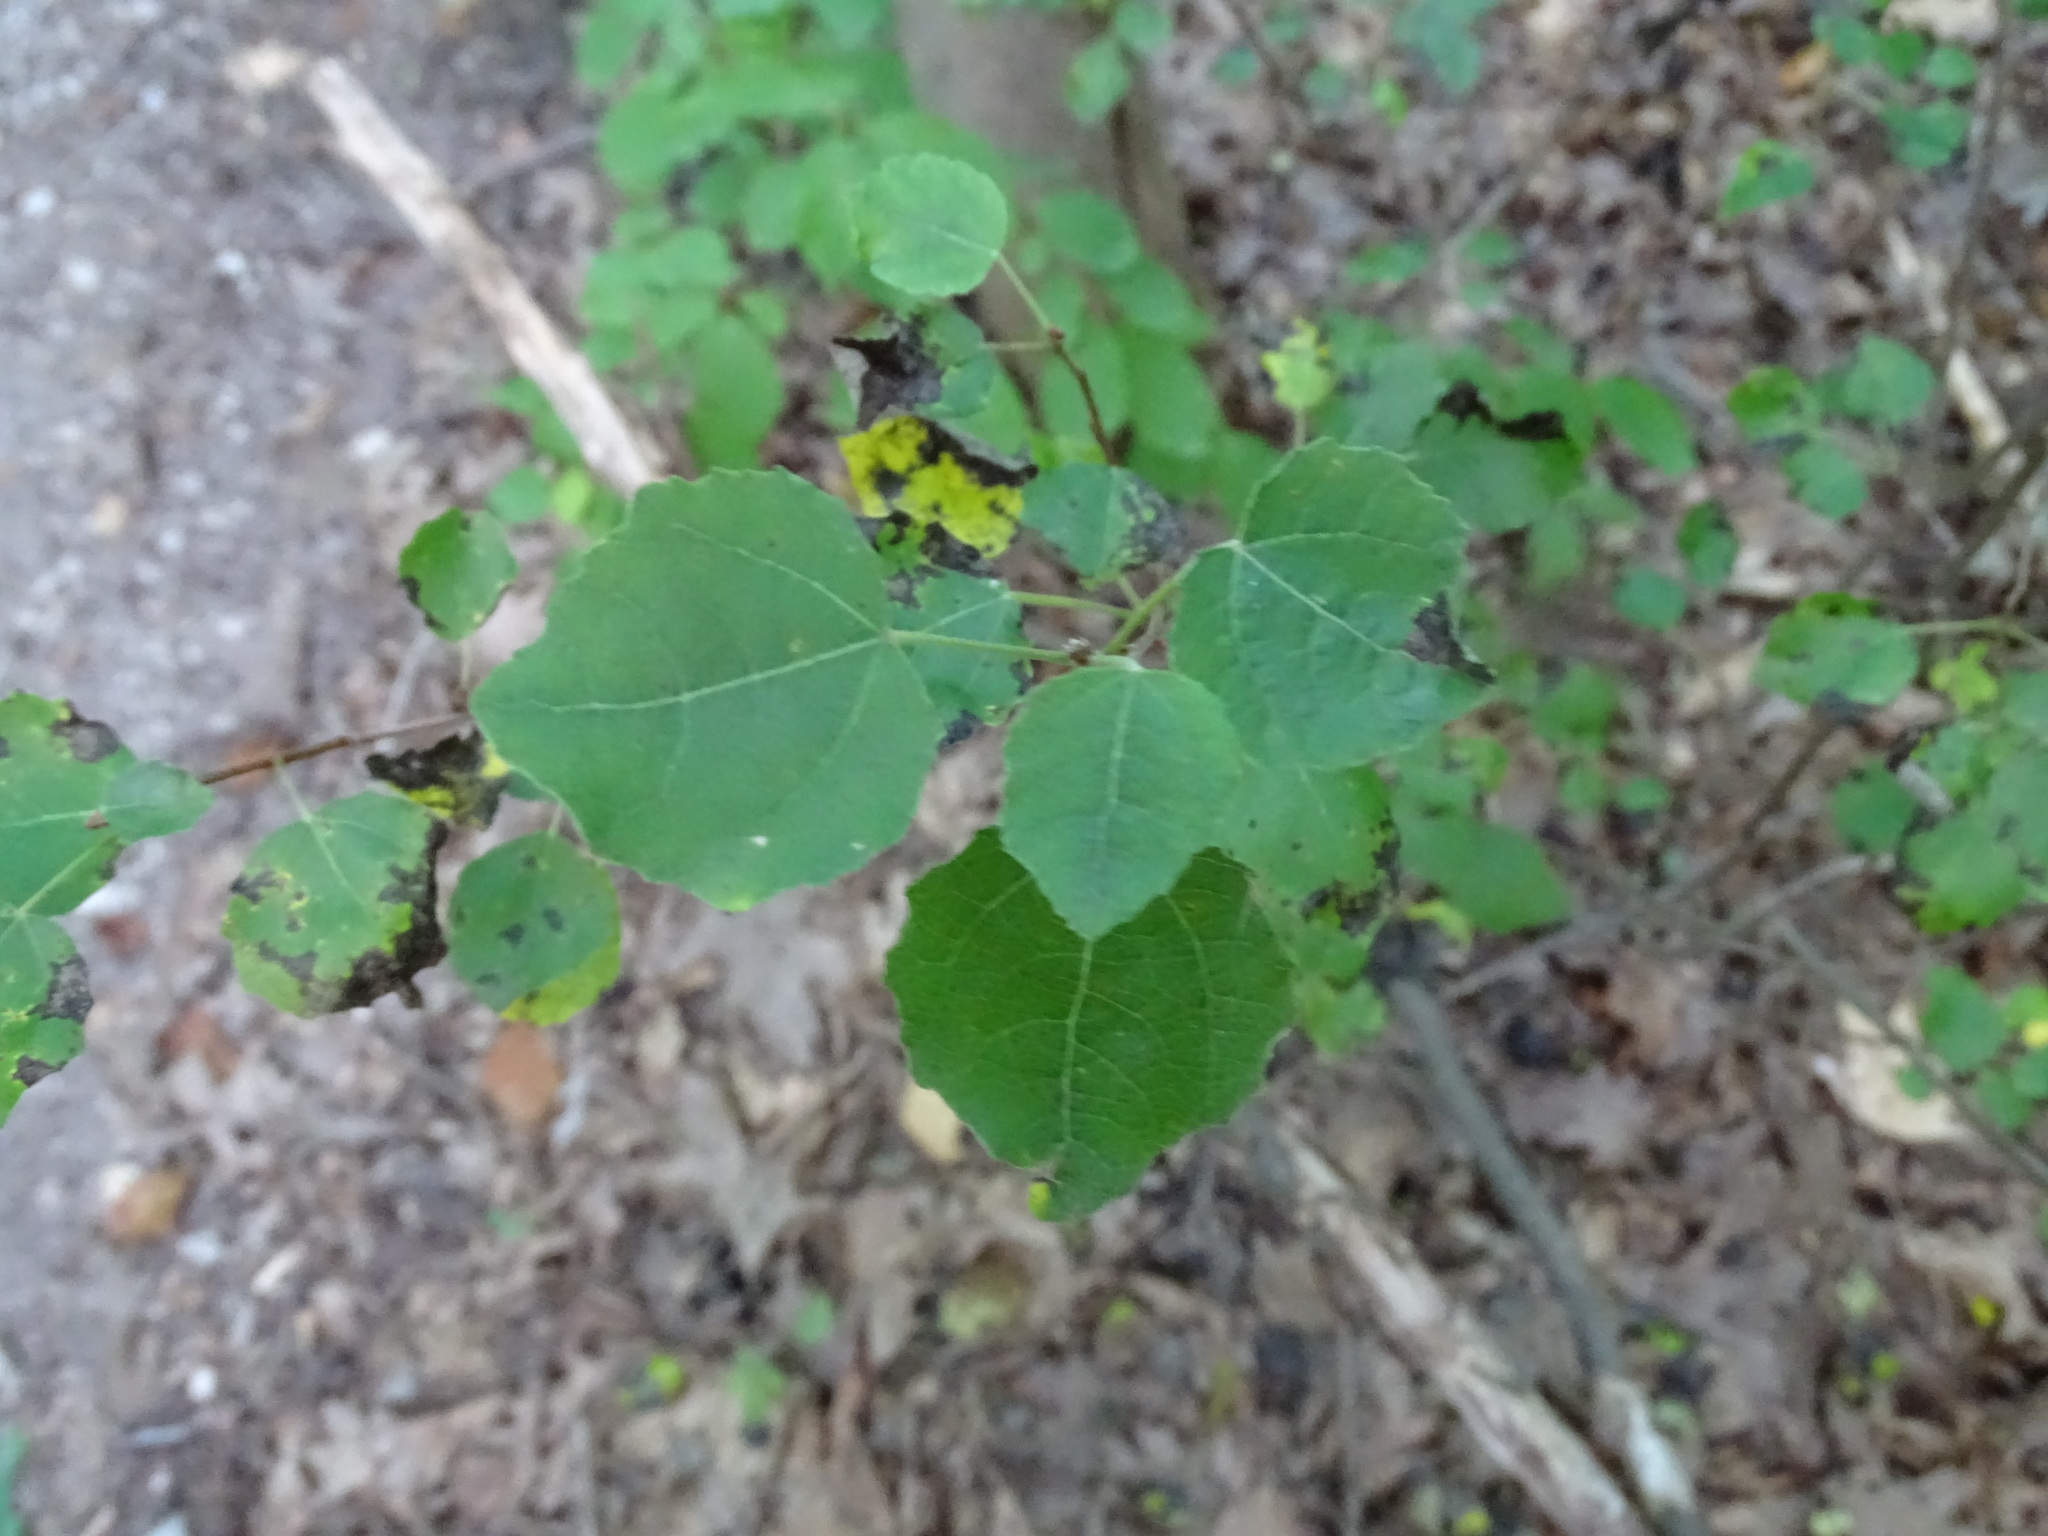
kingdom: Plantae
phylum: Tracheophyta
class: Magnoliopsida
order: Malpighiales
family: Salicaceae
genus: Populus
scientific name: Populus tremuloides
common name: Quaking aspen
